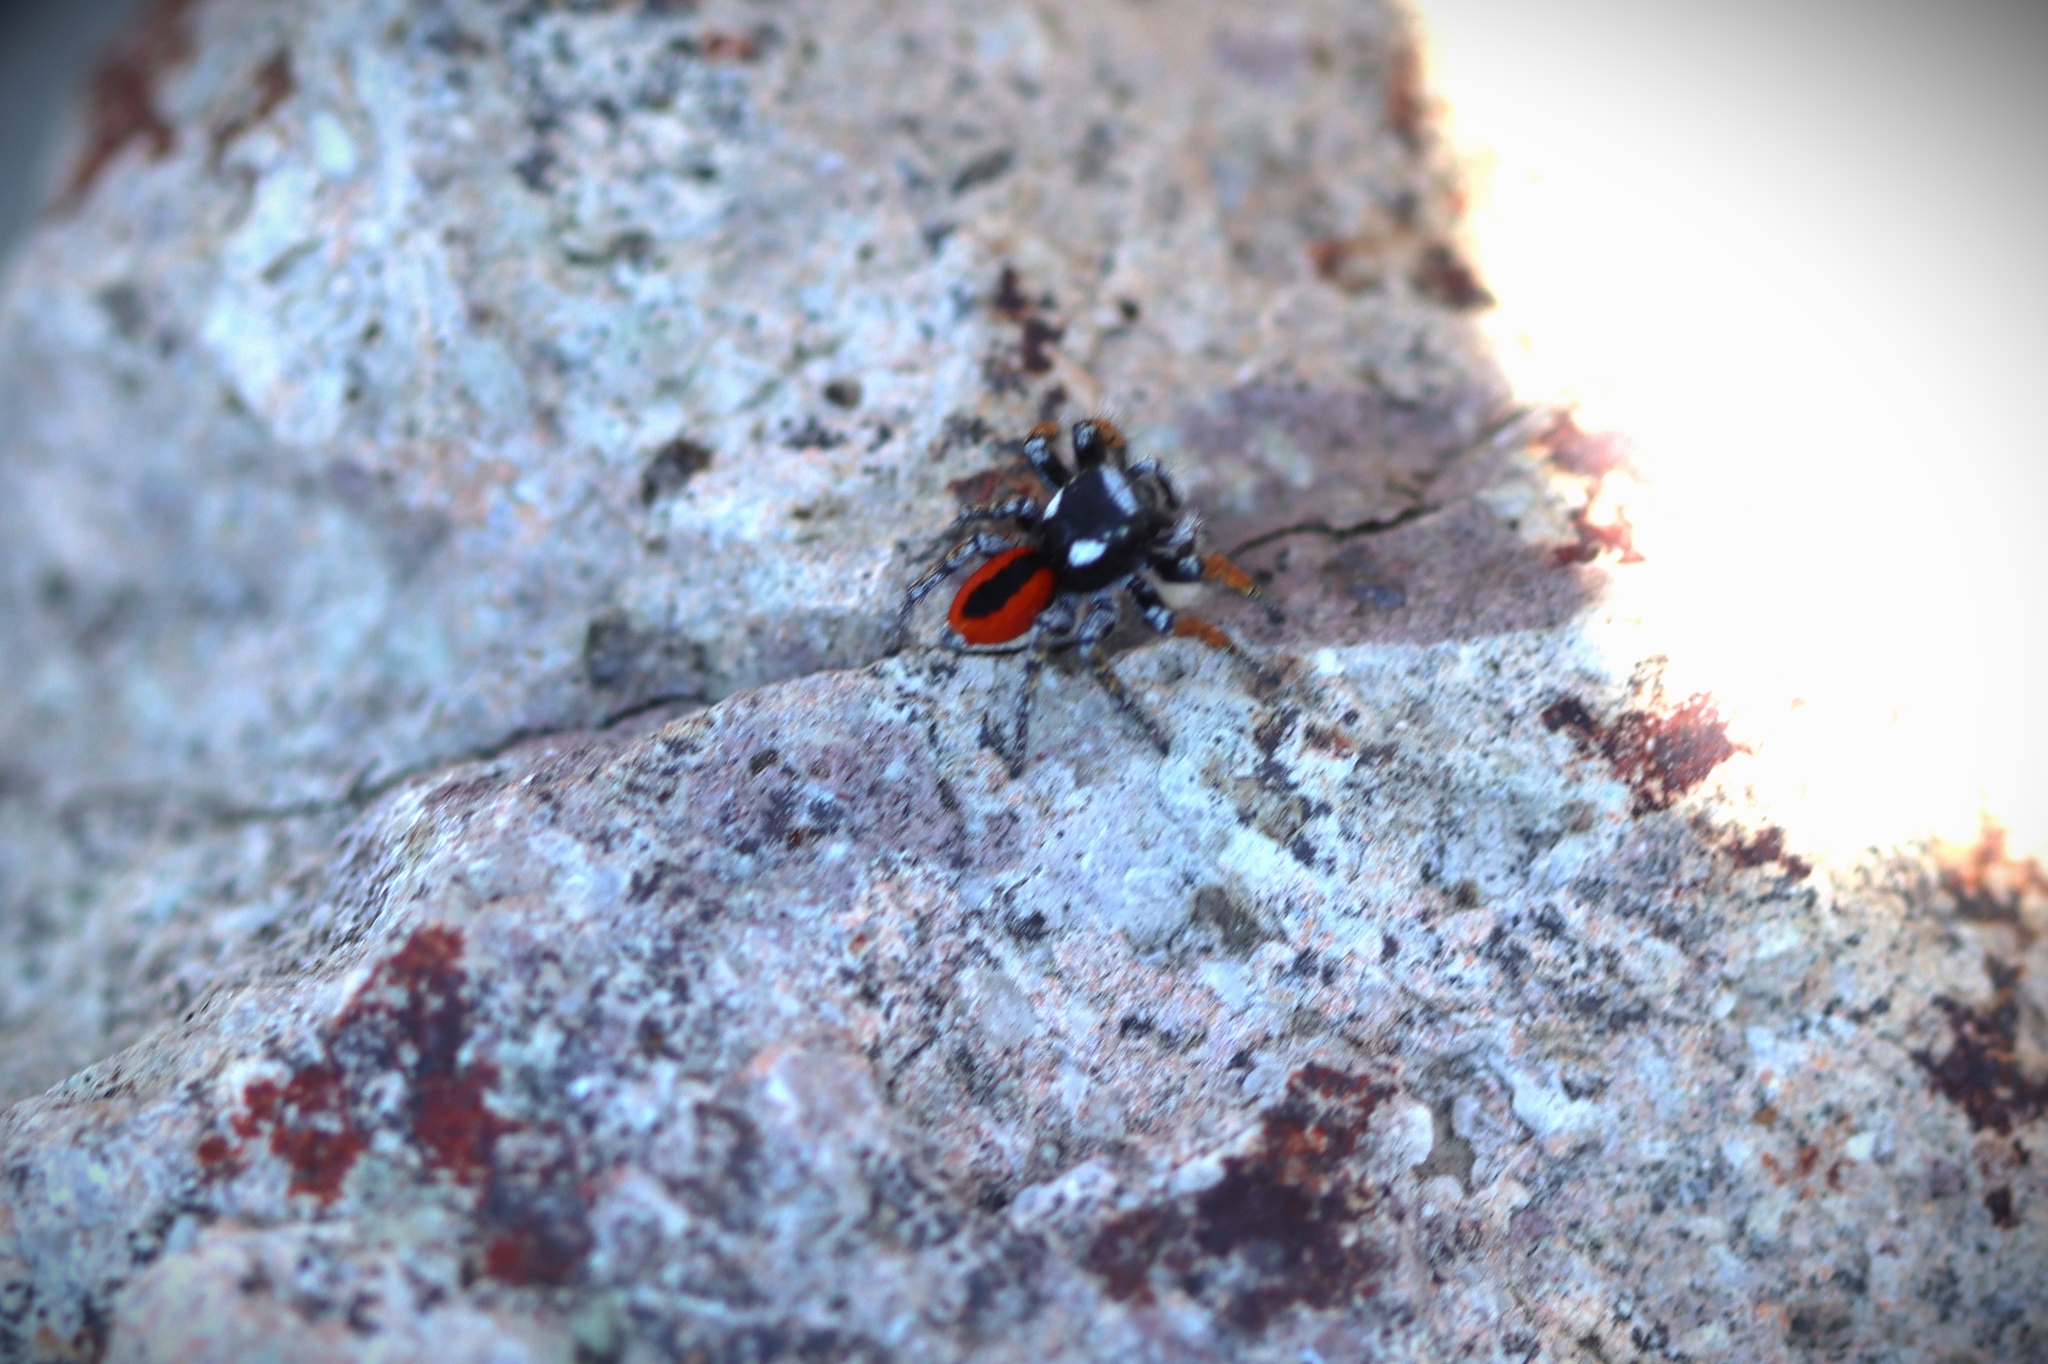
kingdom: Animalia
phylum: Arthropoda
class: Arachnida
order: Araneae
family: Salticidae
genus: Philaeus
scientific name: Philaeus chrysops
